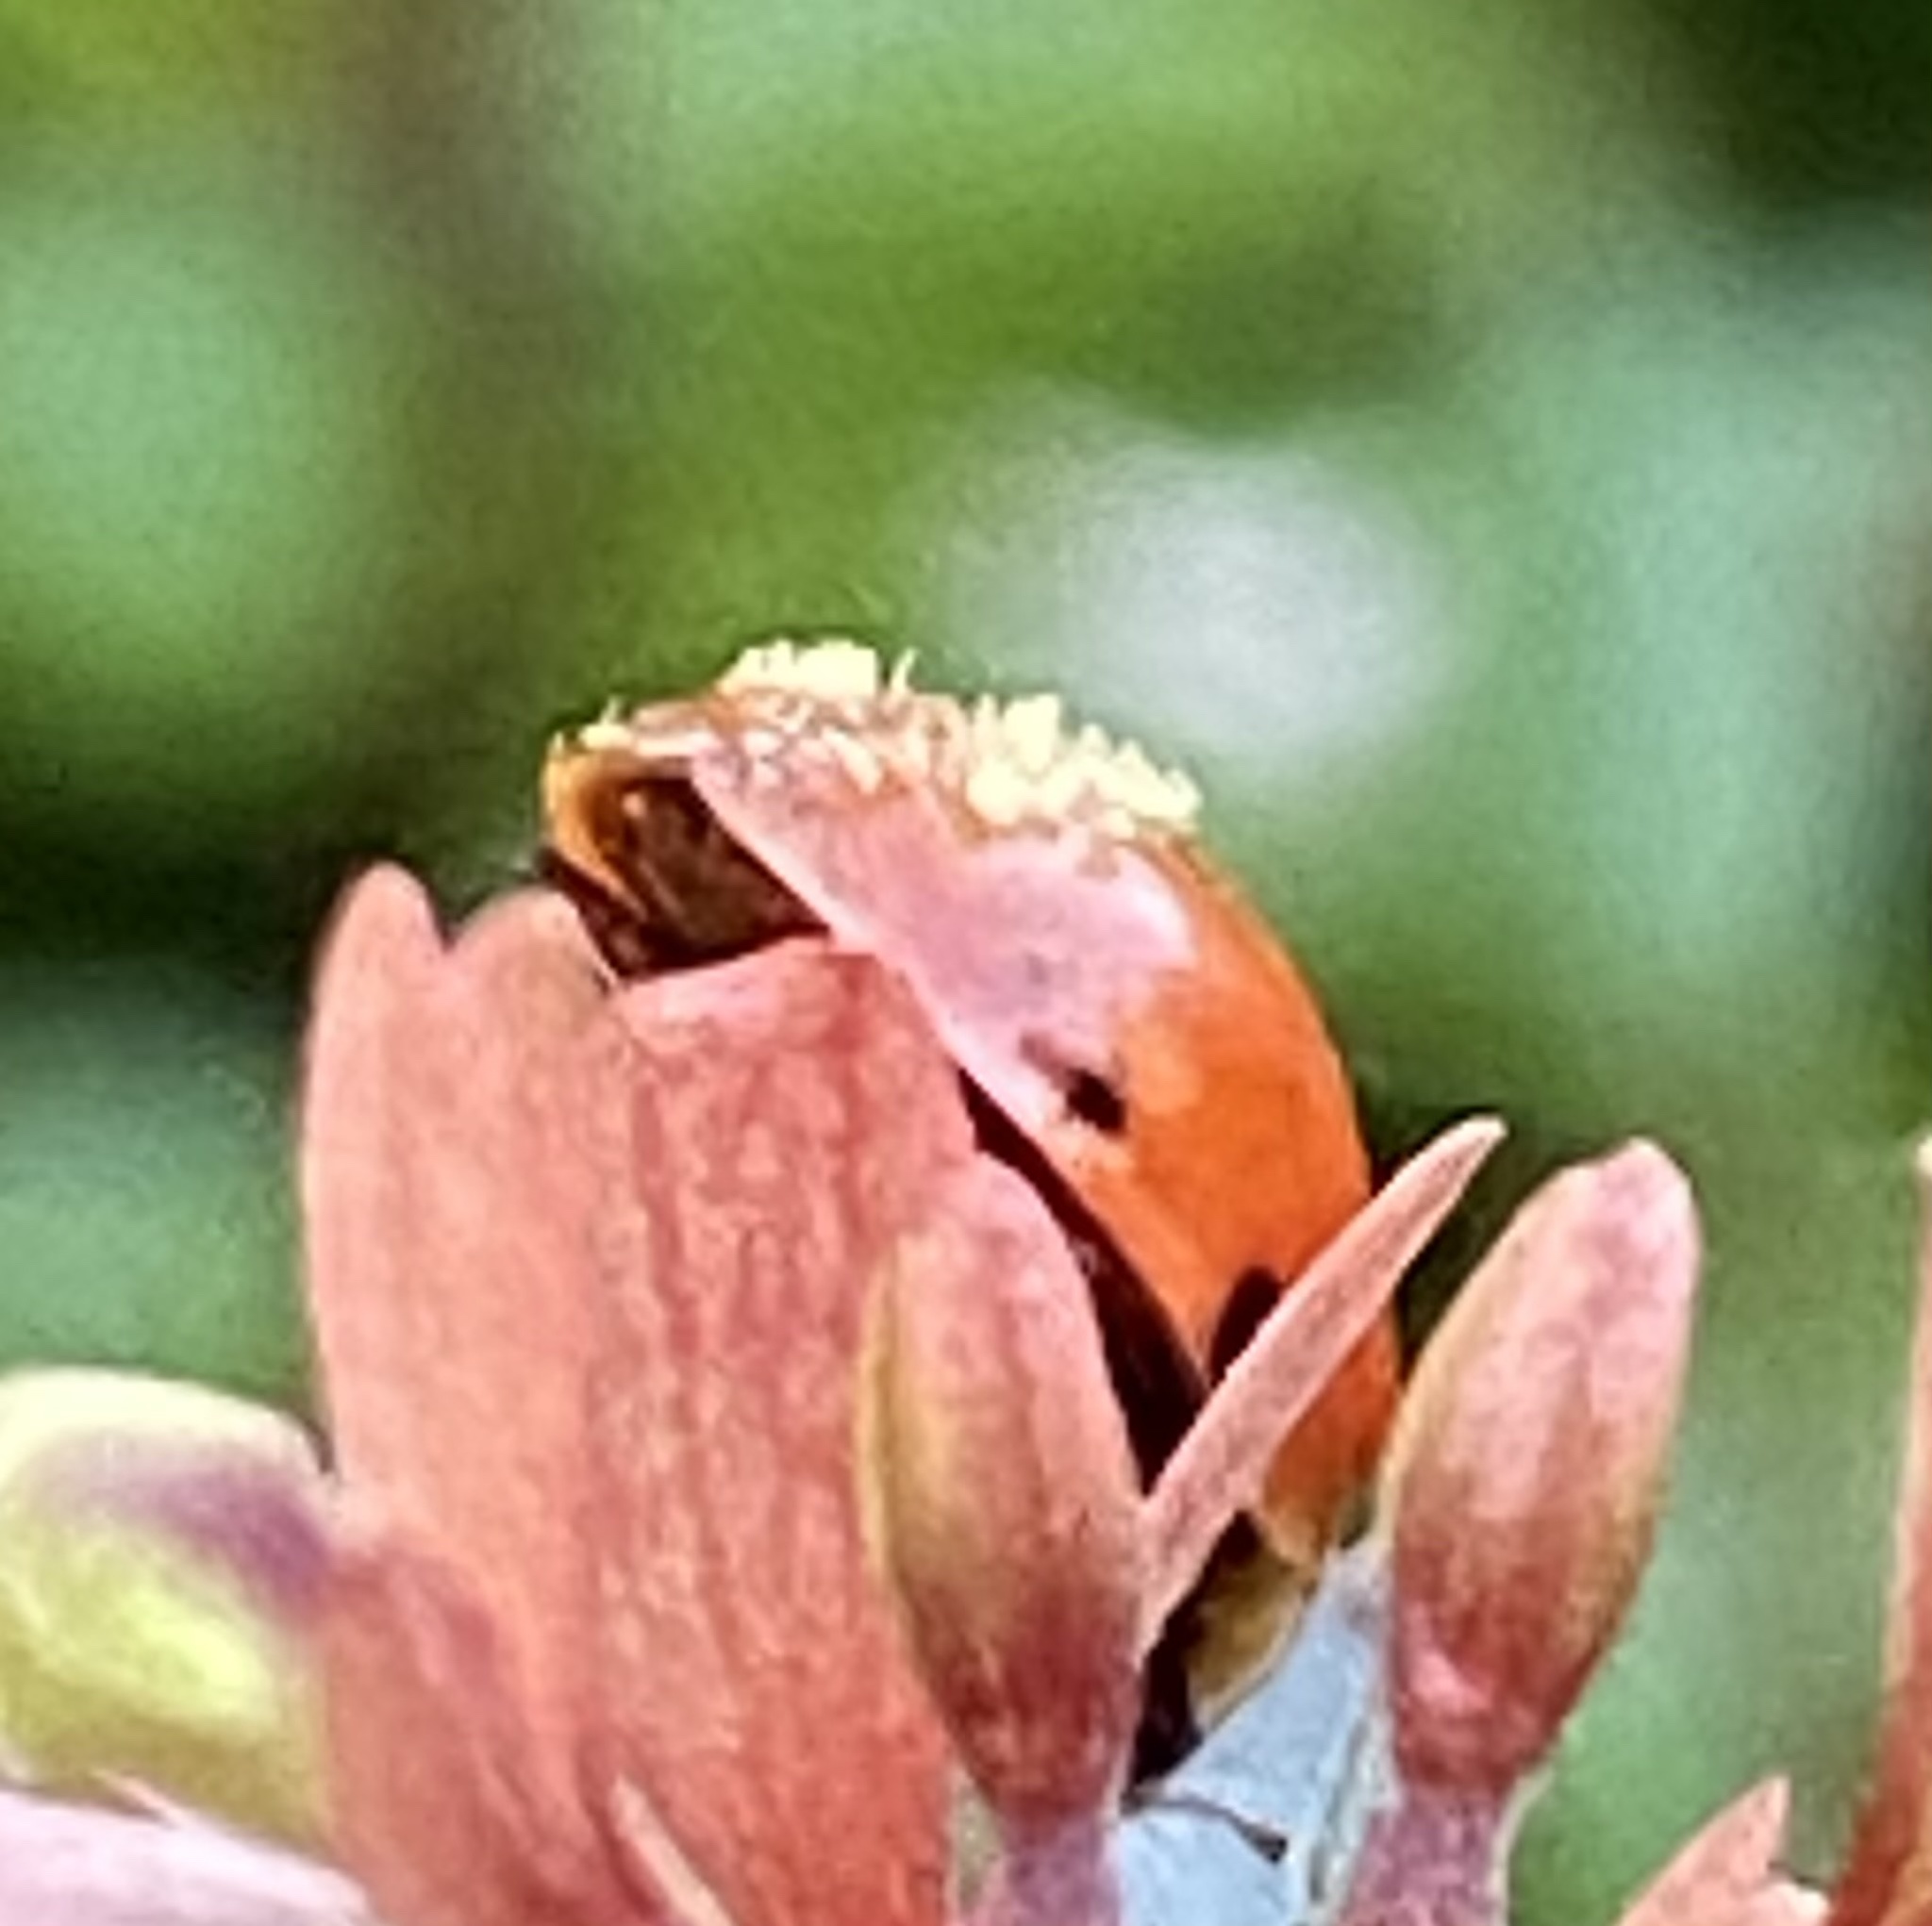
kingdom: Fungi
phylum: Ascomycota
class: Laboulbeniomycetes
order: Laboulbeniales
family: Laboulbeniaceae
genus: Hesperomyces
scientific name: Hesperomyces harmoniae
